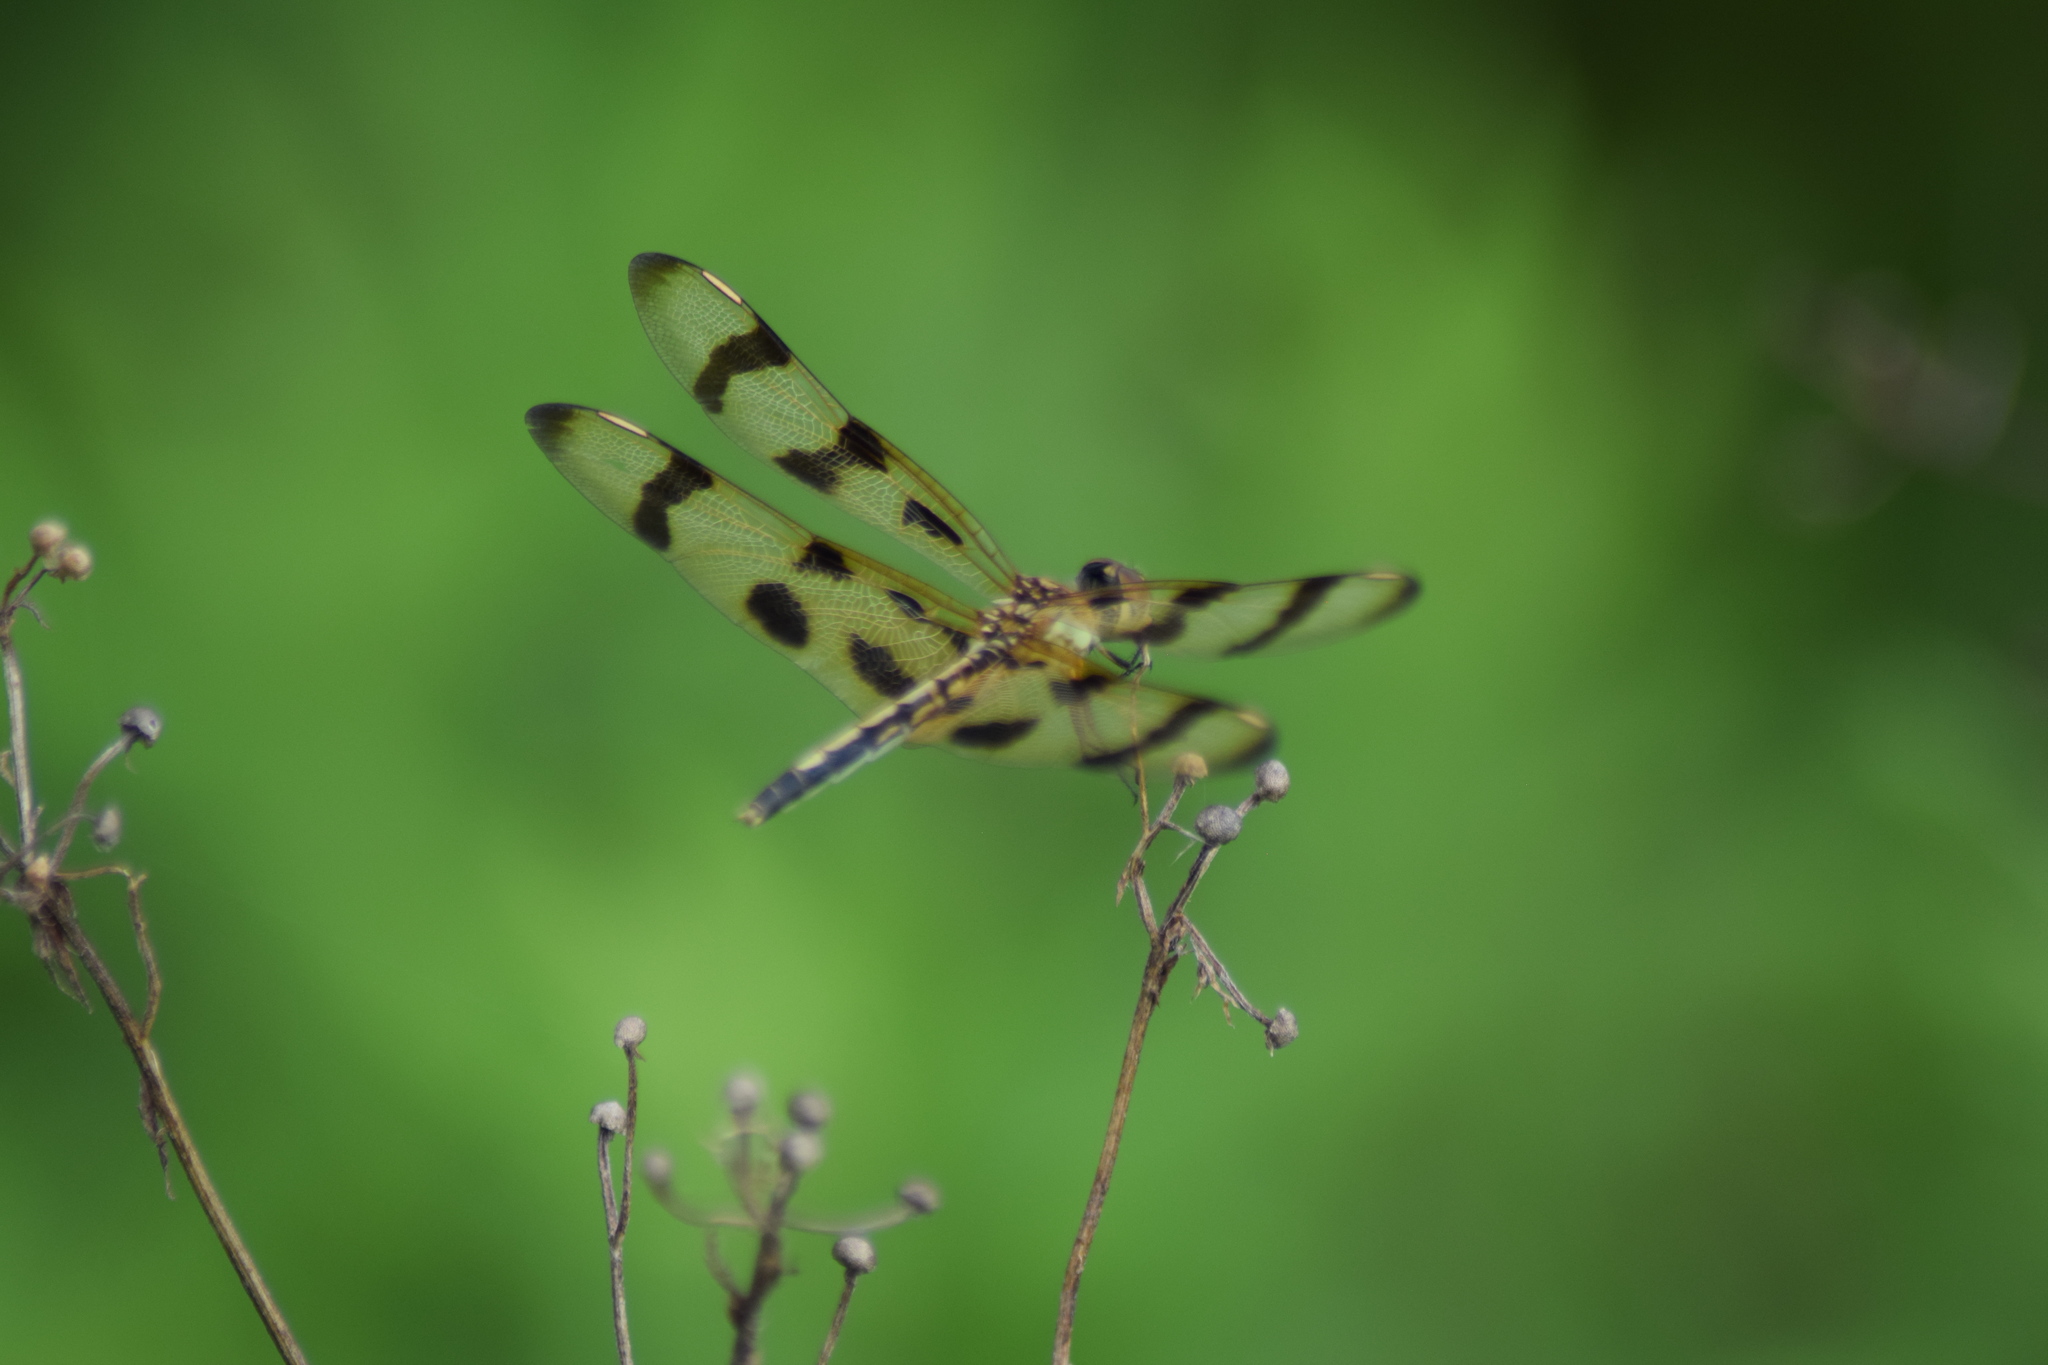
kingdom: Animalia
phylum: Arthropoda
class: Insecta
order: Odonata
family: Libellulidae
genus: Celithemis
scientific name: Celithemis eponina
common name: Halloween pennant
